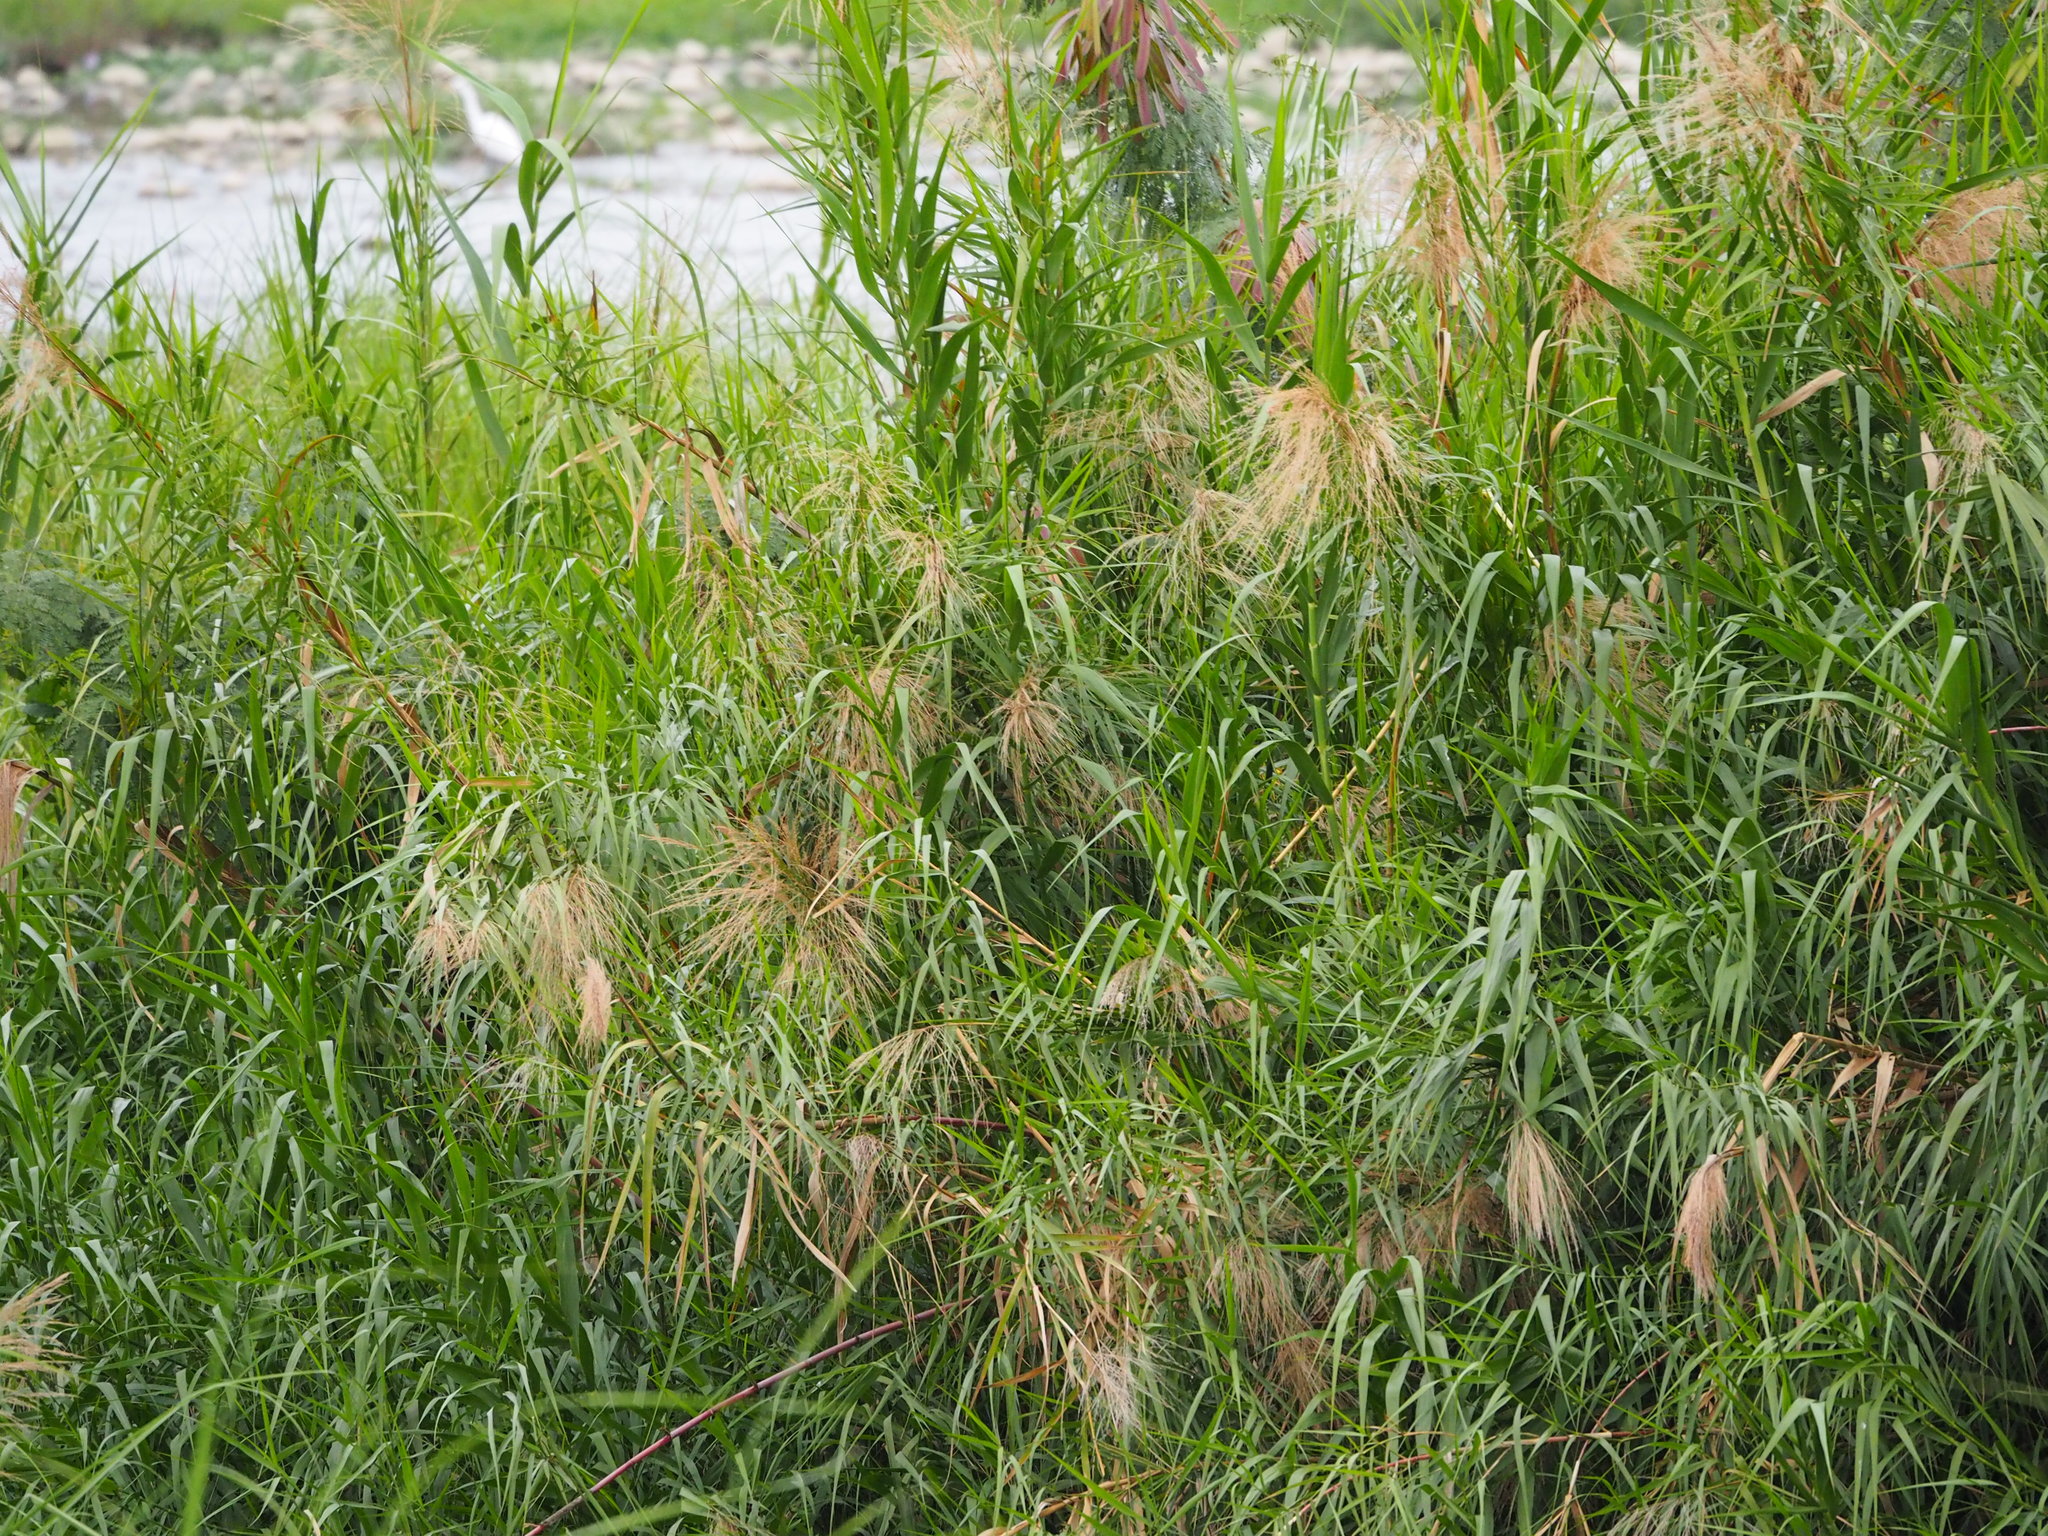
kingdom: Plantae
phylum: Tracheophyta
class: Liliopsida
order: Poales
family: Poaceae
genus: Phragmites
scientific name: Phragmites karka
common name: Tropical reed
